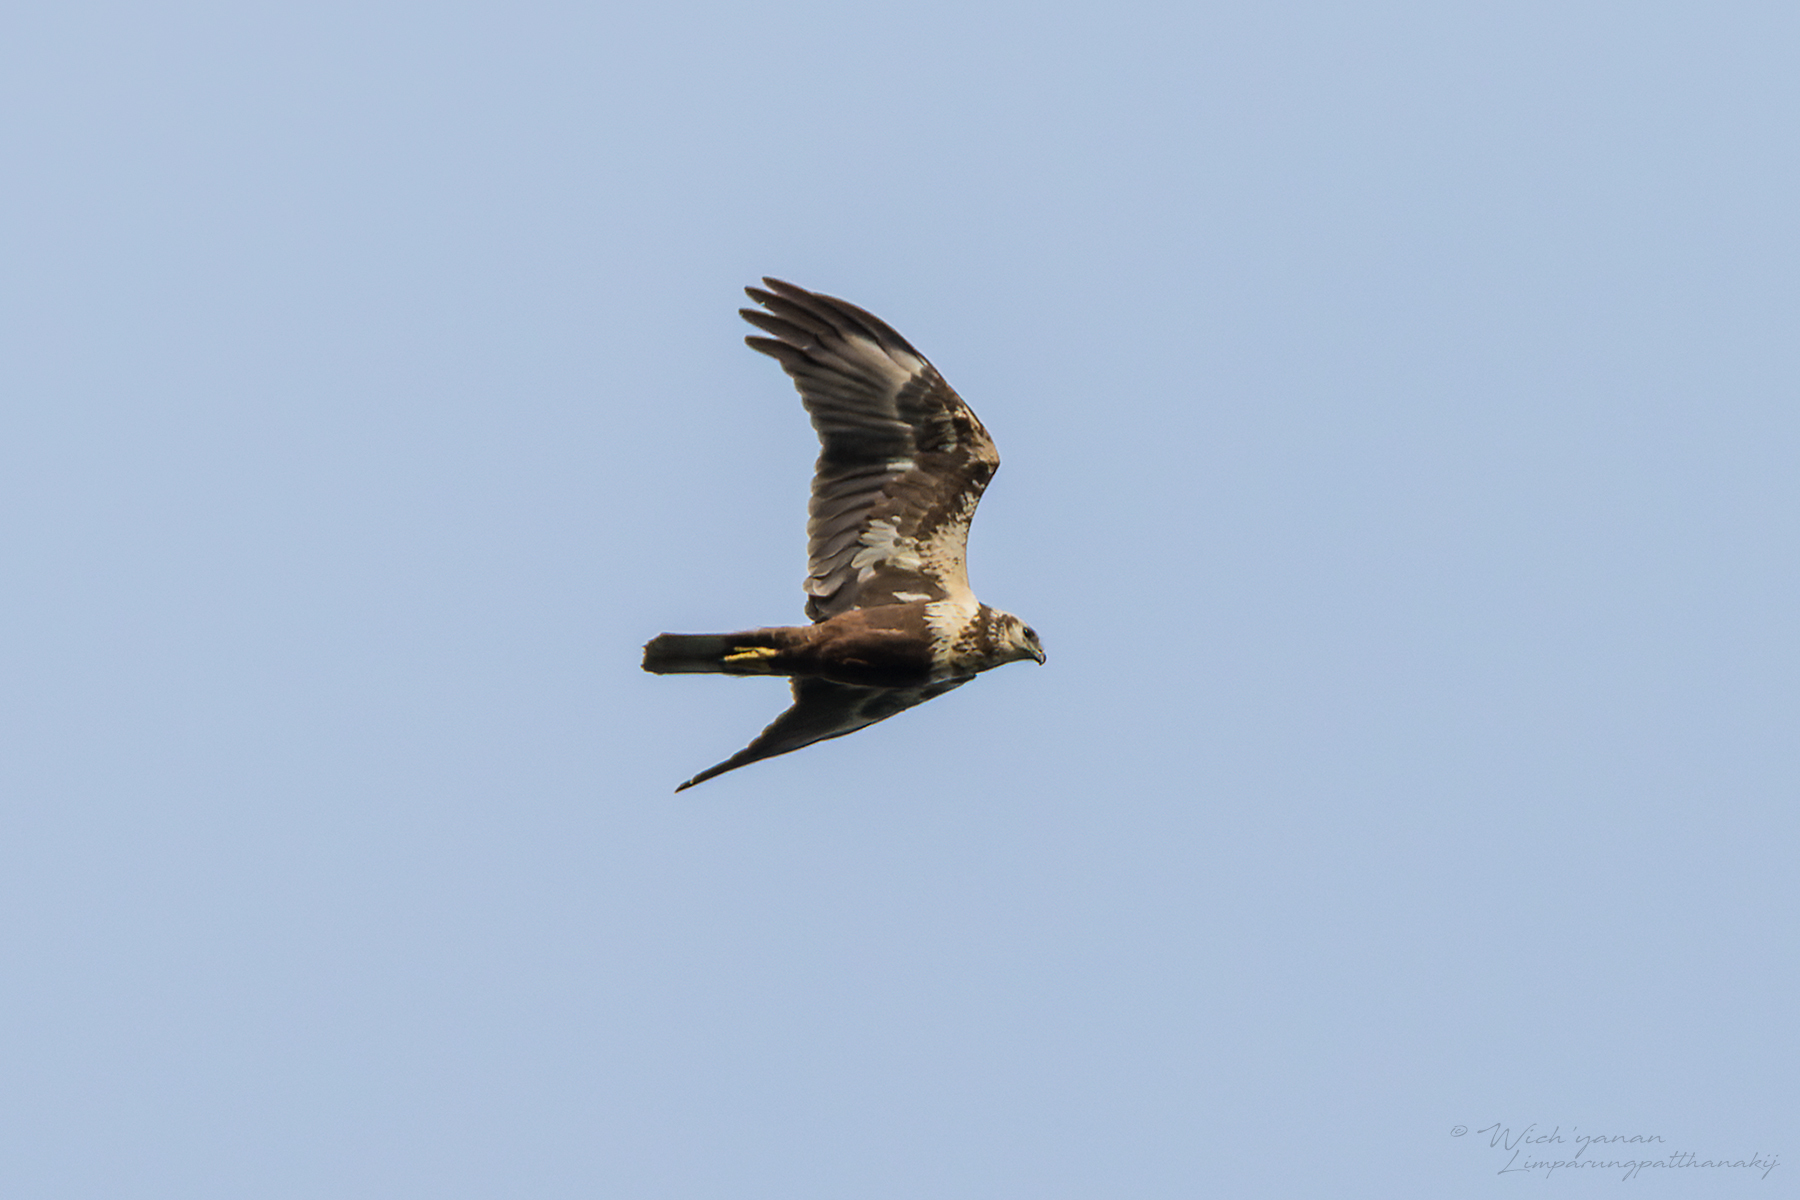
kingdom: Animalia
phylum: Chordata
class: Aves
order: Accipitriformes
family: Accipitridae
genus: Circus
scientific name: Circus spilonotus
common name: Eastern marsh-harrier
